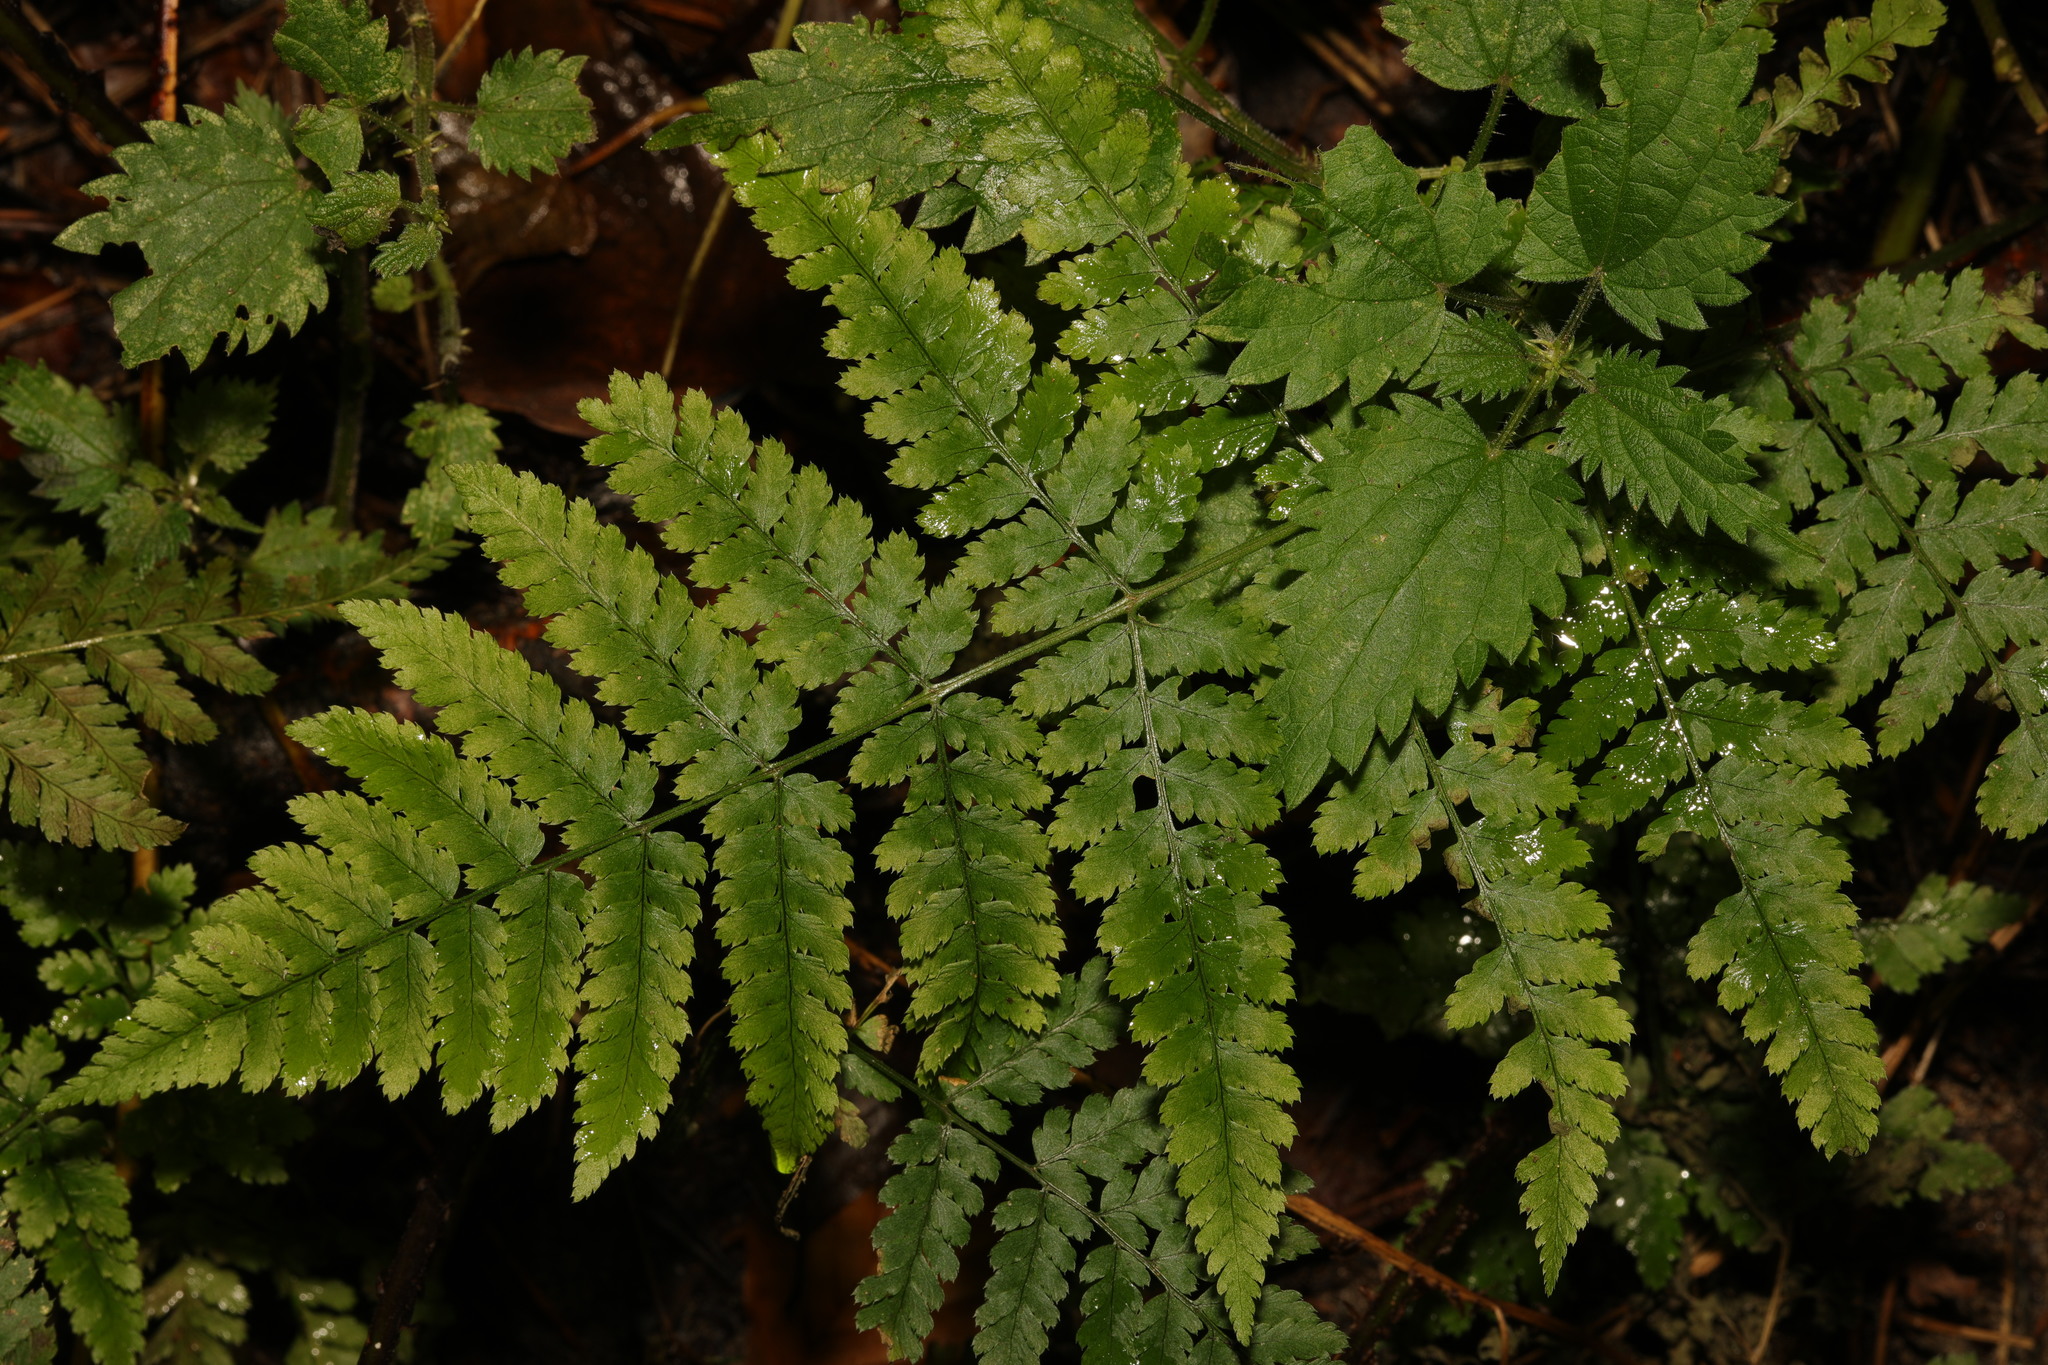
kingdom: Plantae
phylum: Tracheophyta
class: Polypodiopsida
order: Polypodiales
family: Dryopteridaceae
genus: Dryopteris
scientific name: Dryopteris dilatata
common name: Broad buckler-fern
